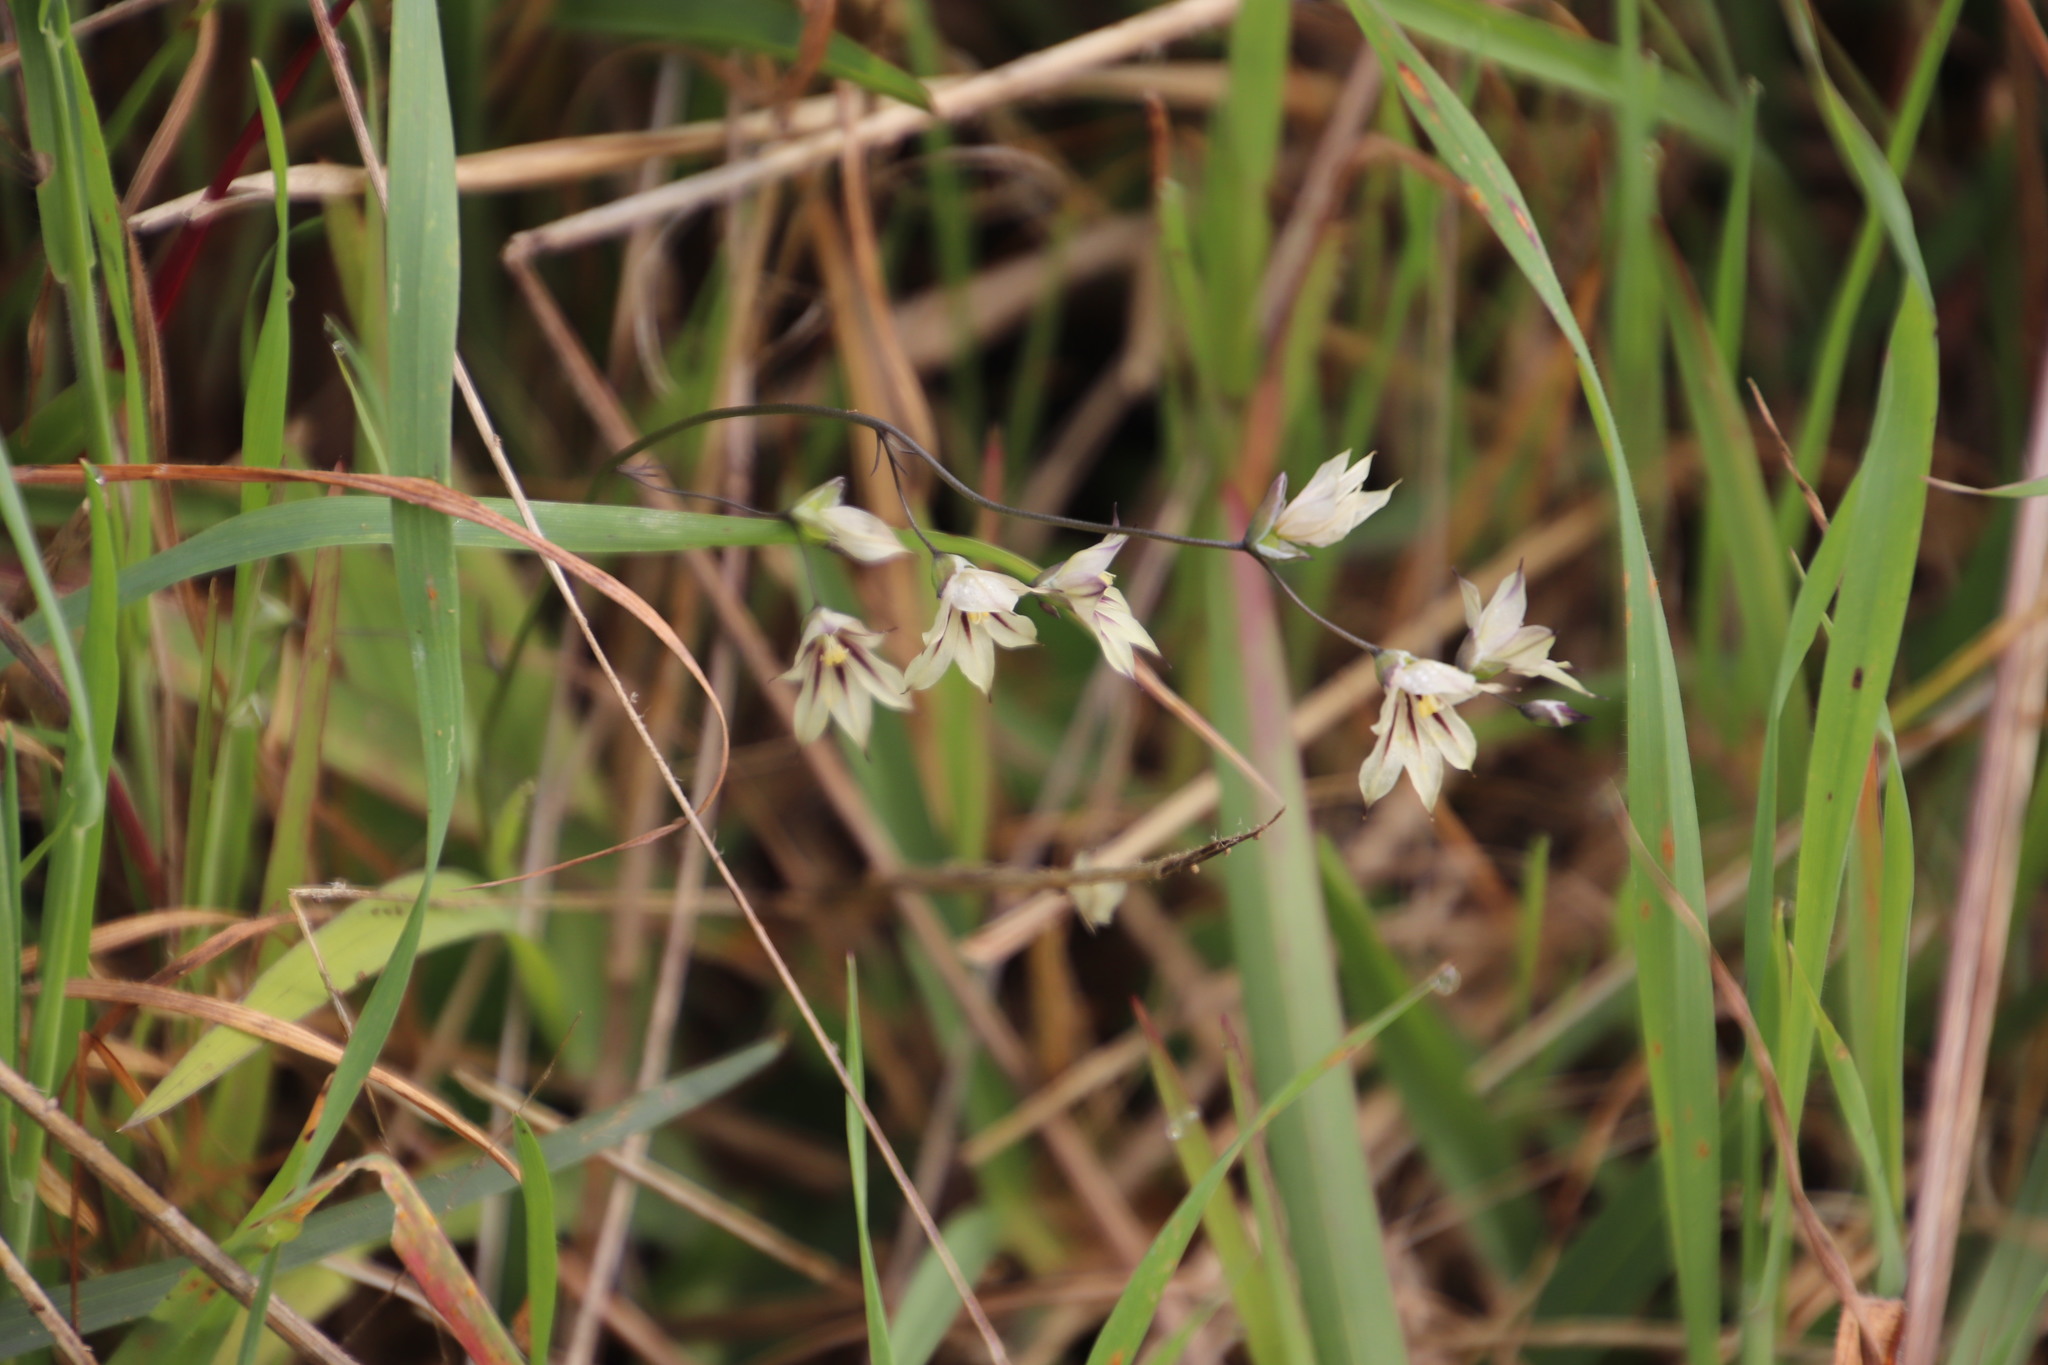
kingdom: Plantae
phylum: Tracheophyta
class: Liliopsida
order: Asparagales
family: Iridaceae
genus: Melasphaerula
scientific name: Melasphaerula graminea
